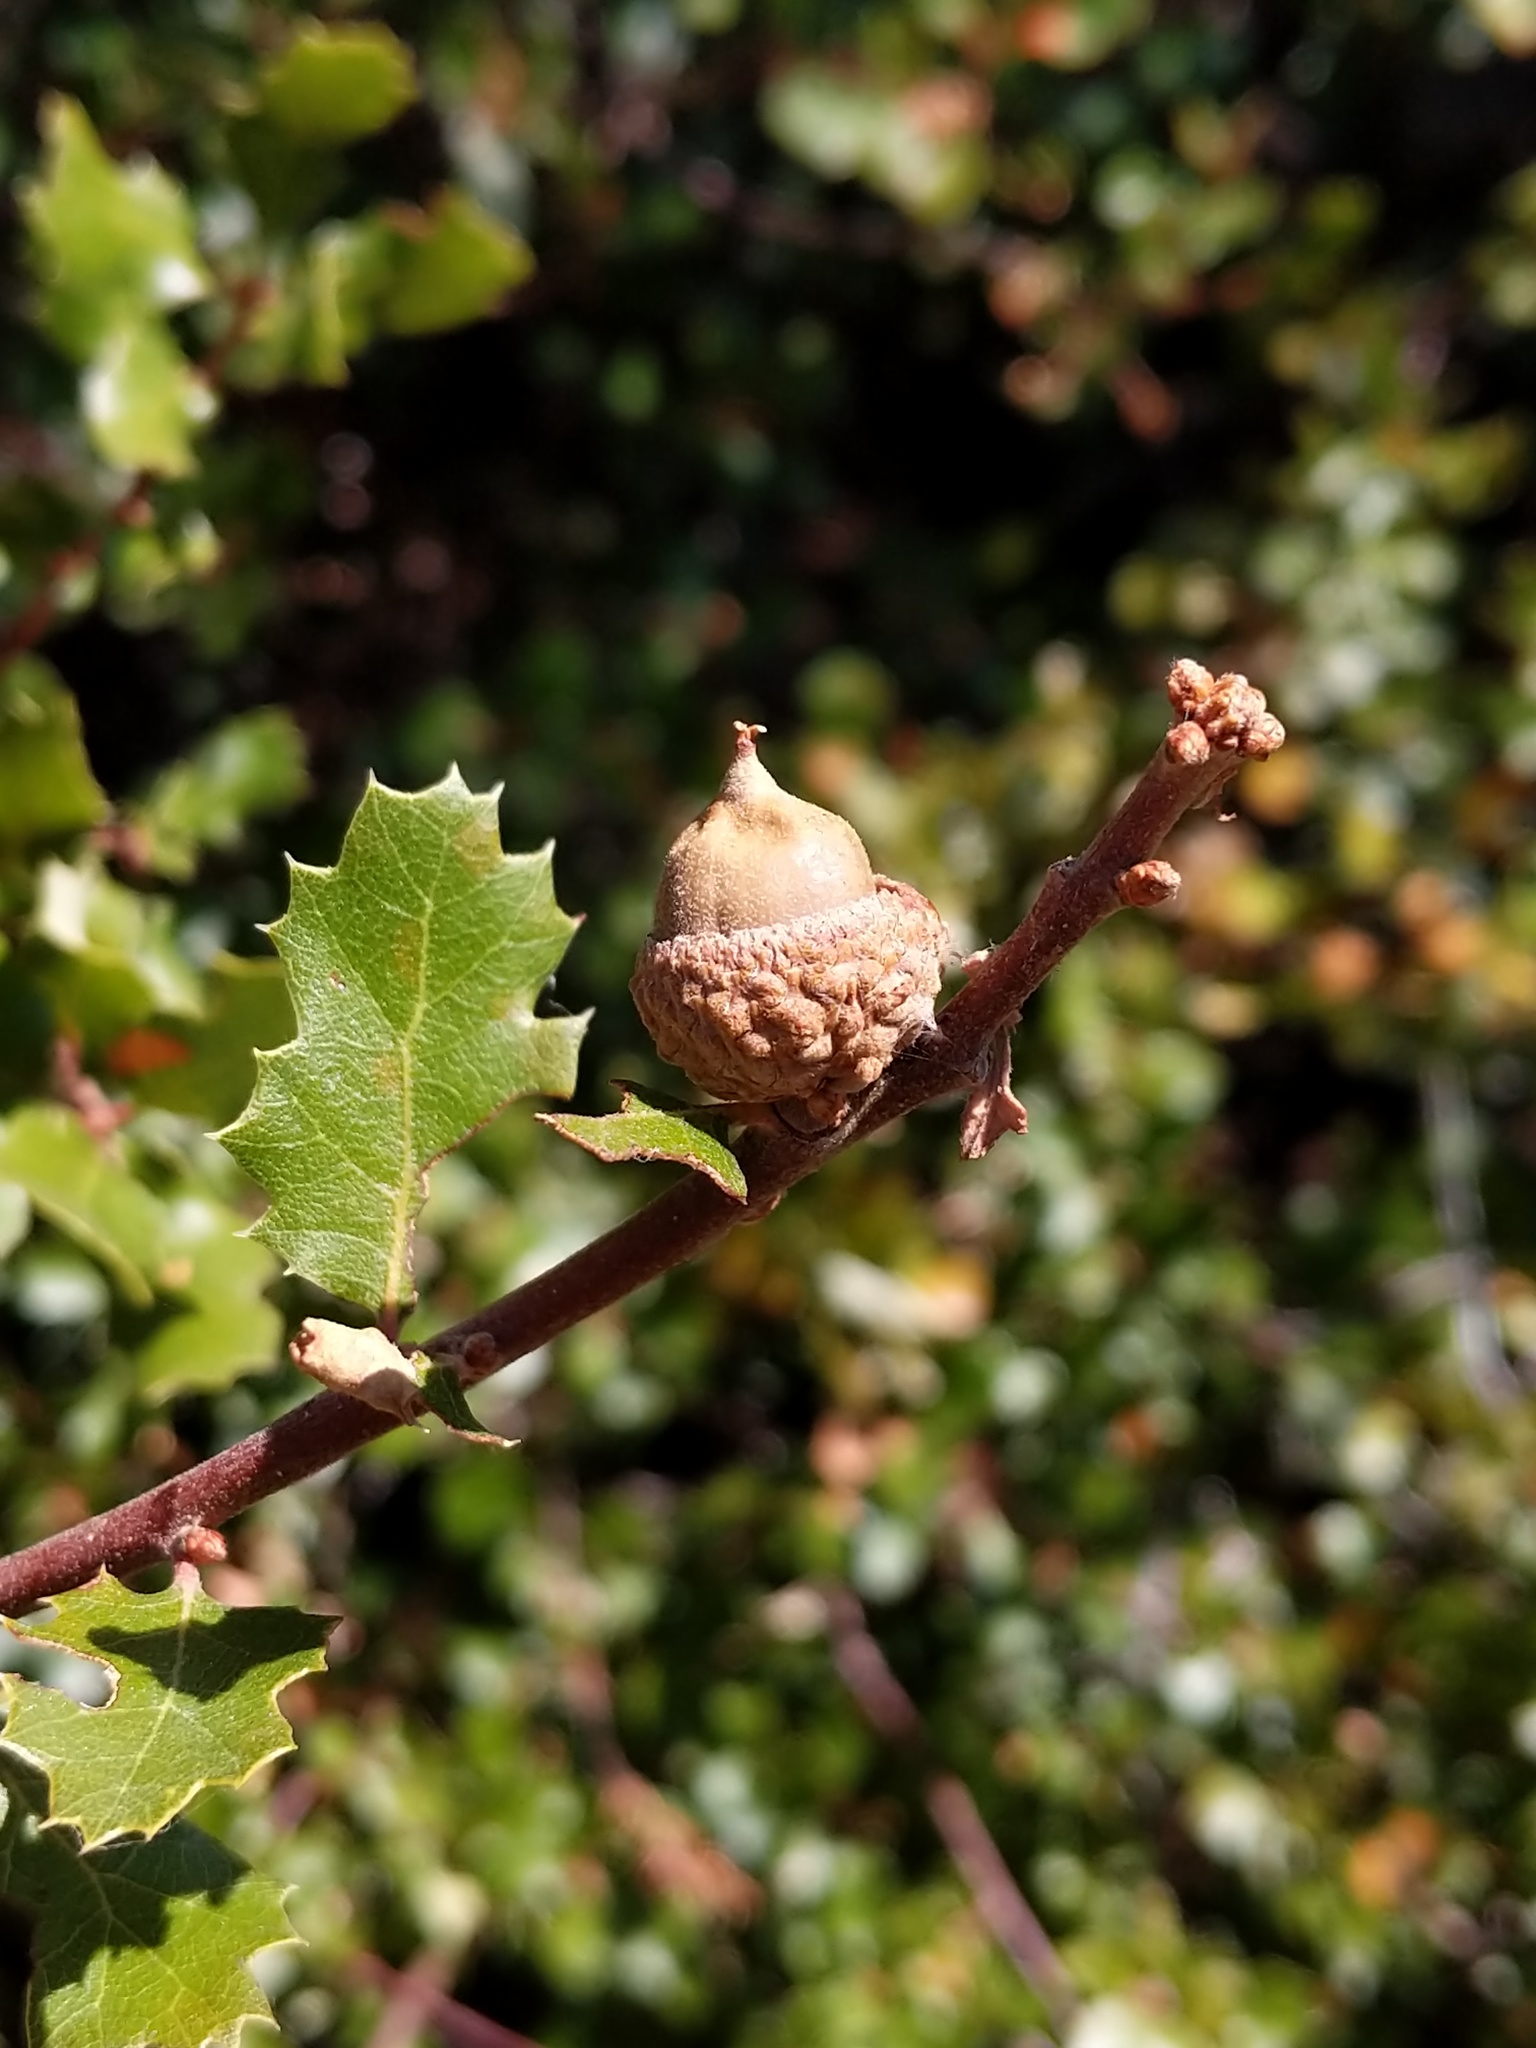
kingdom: Plantae
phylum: Tracheophyta
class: Magnoliopsida
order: Fagales
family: Fagaceae
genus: Quercus
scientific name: Quercus berberidifolia
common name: California scrub oak
